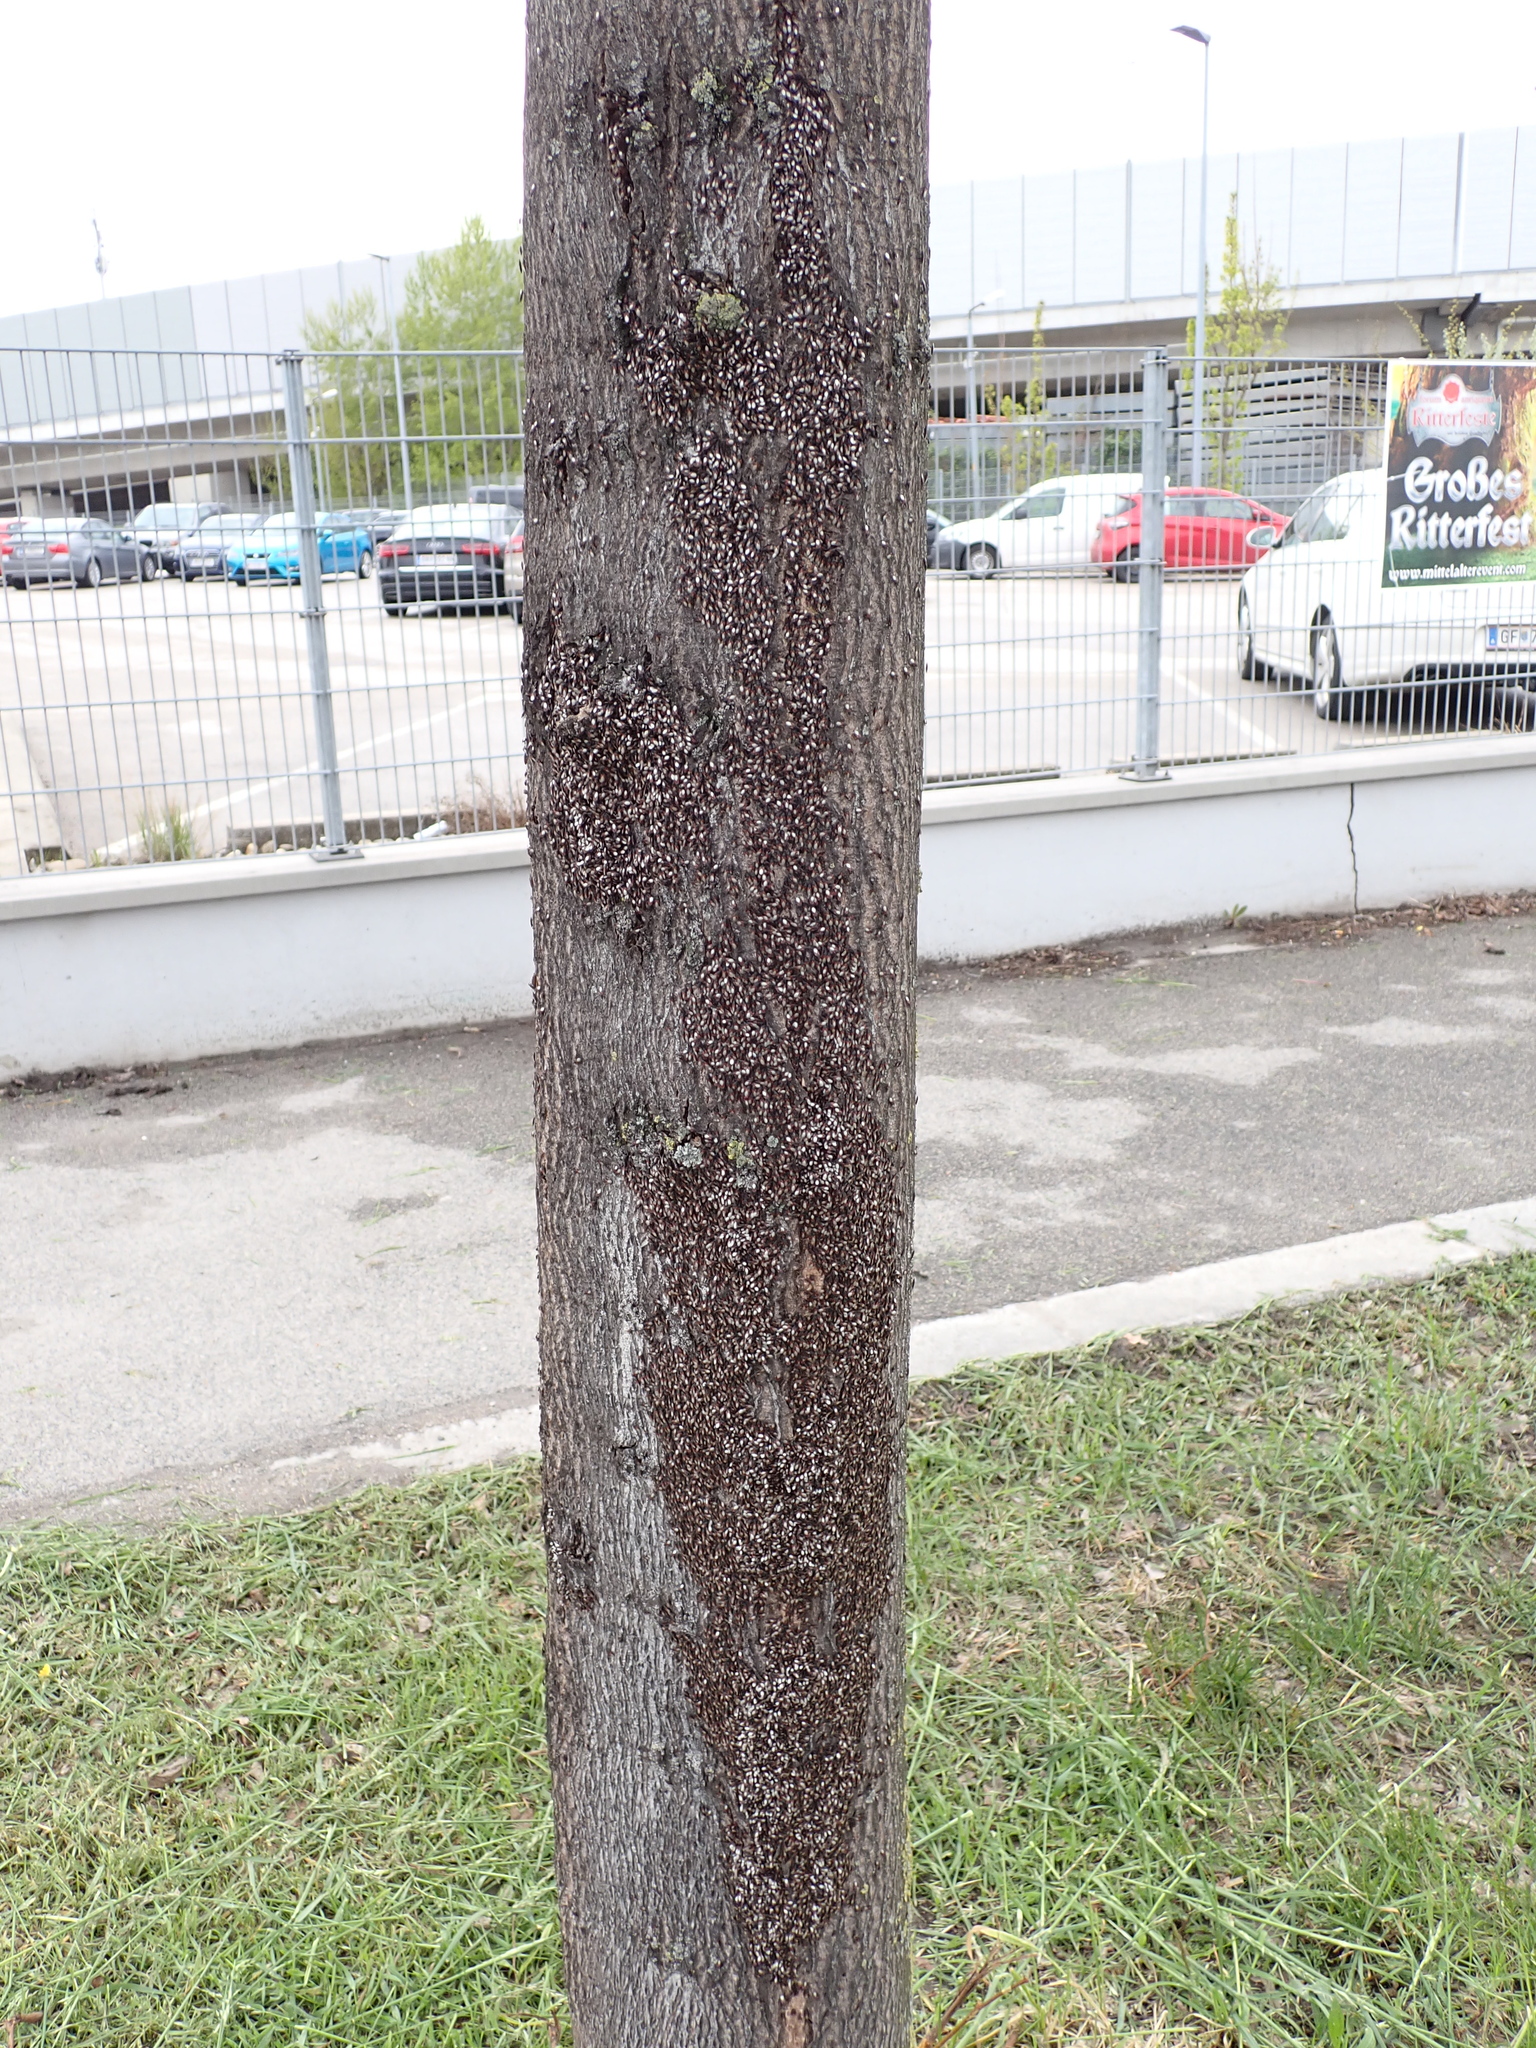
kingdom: Animalia
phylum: Arthropoda
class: Insecta
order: Hemiptera
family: Oxycarenidae
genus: Oxycarenus
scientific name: Oxycarenus lavaterae
